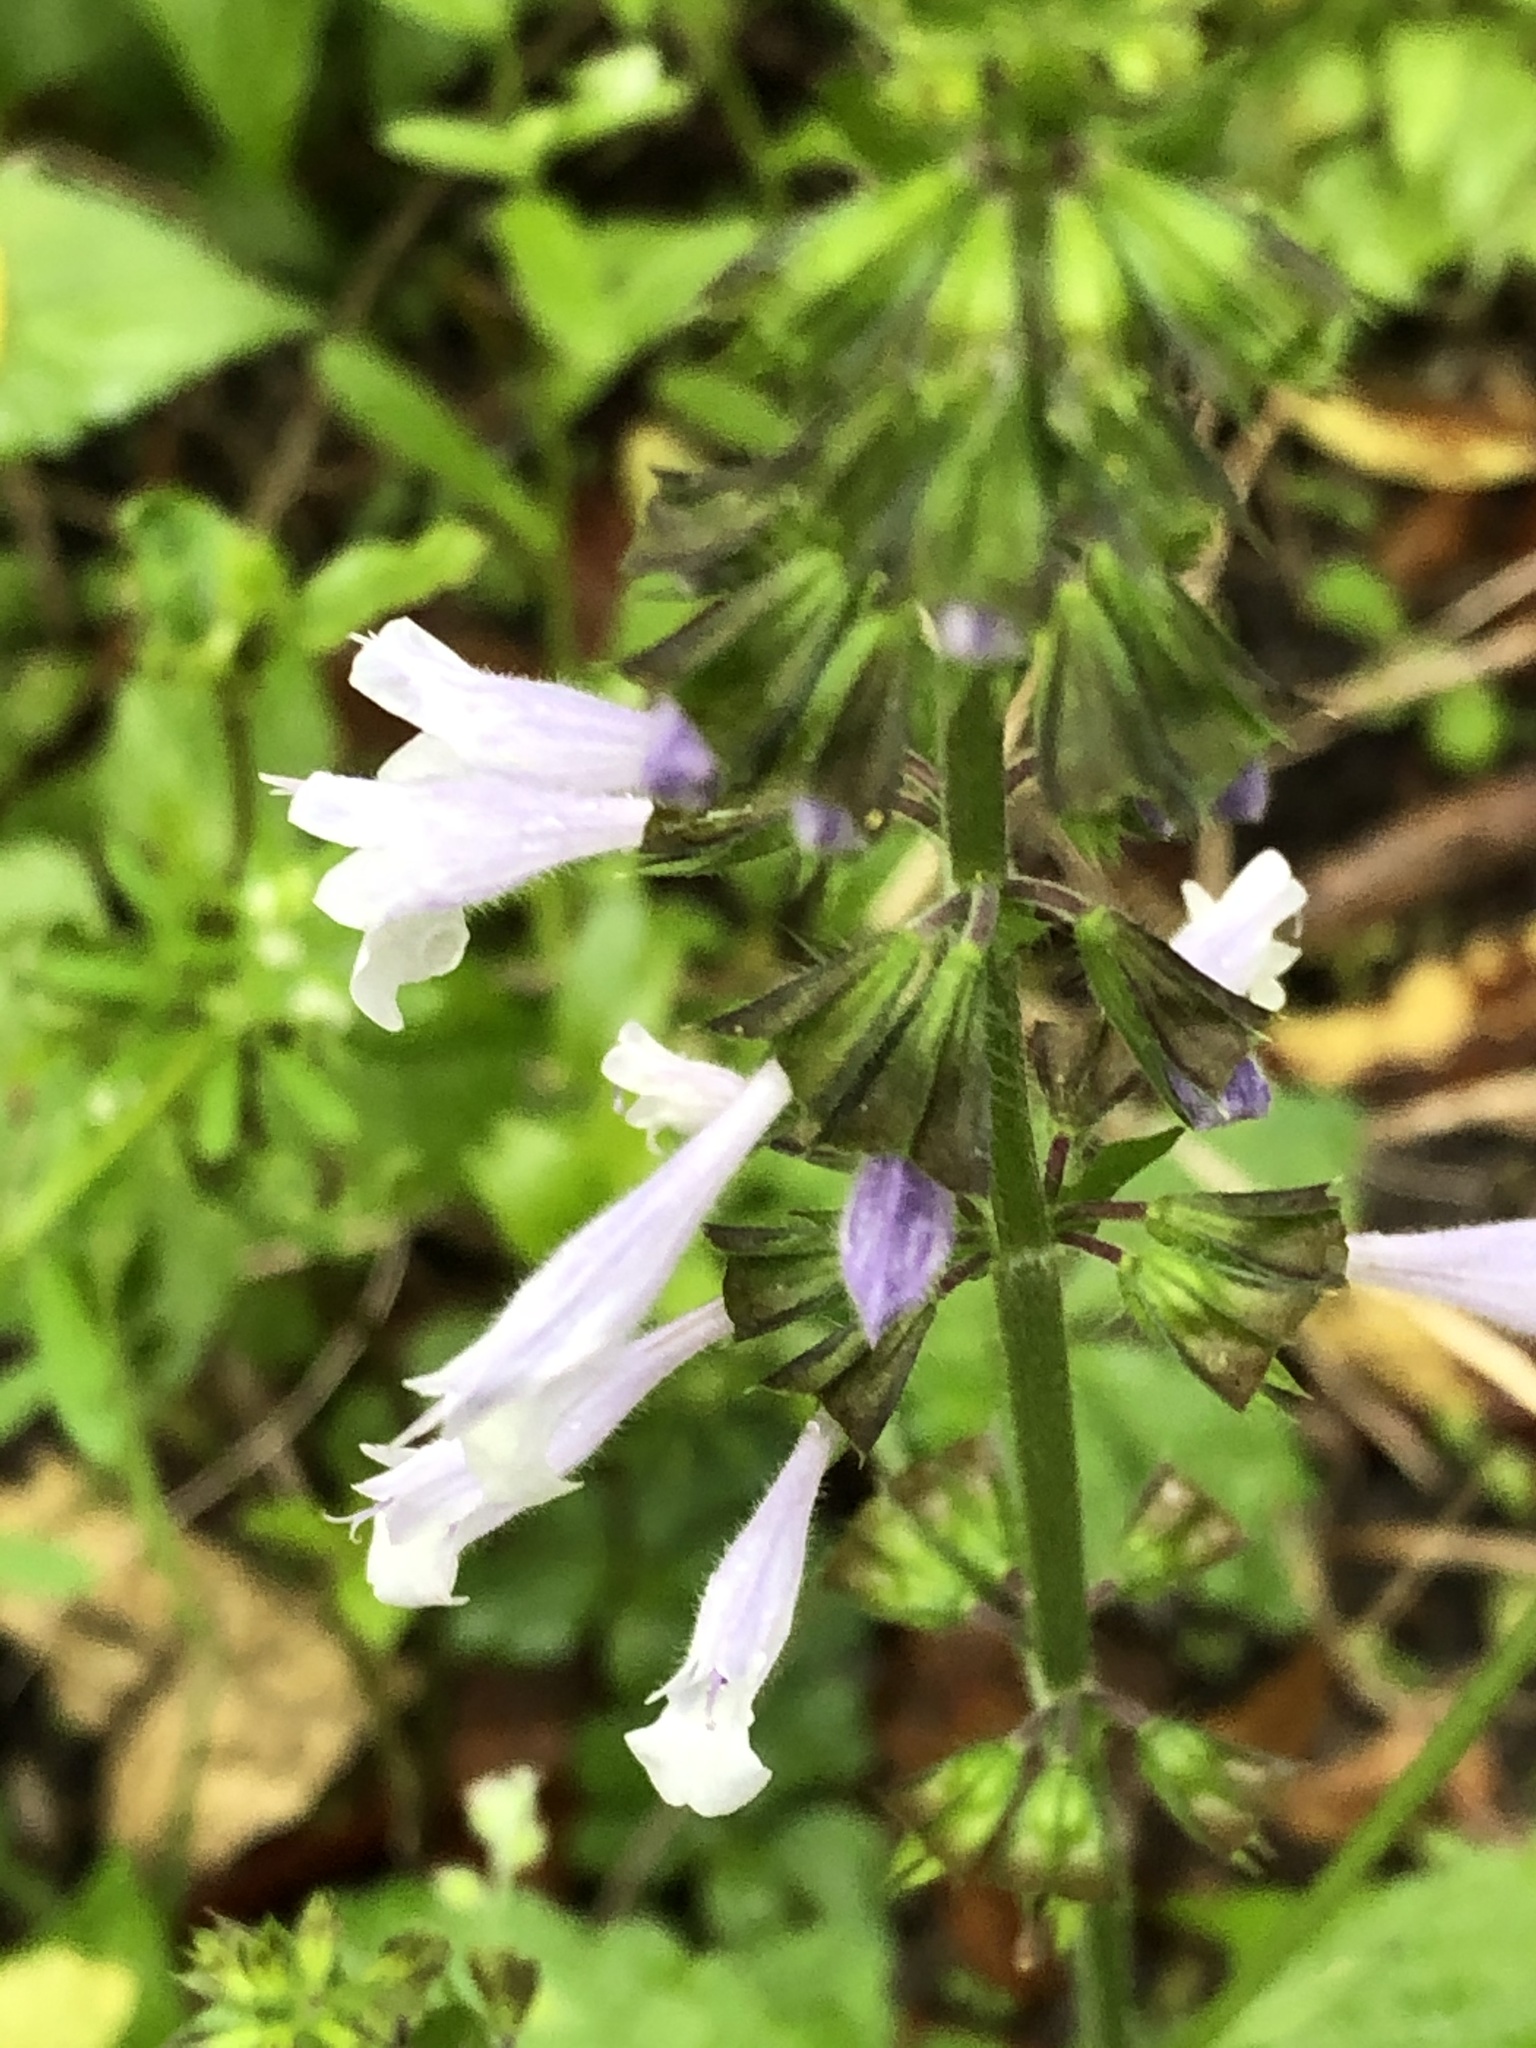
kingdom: Plantae
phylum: Tracheophyta
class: Magnoliopsida
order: Lamiales
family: Lamiaceae
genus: Salvia
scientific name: Salvia lyrata
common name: Cancerweed
